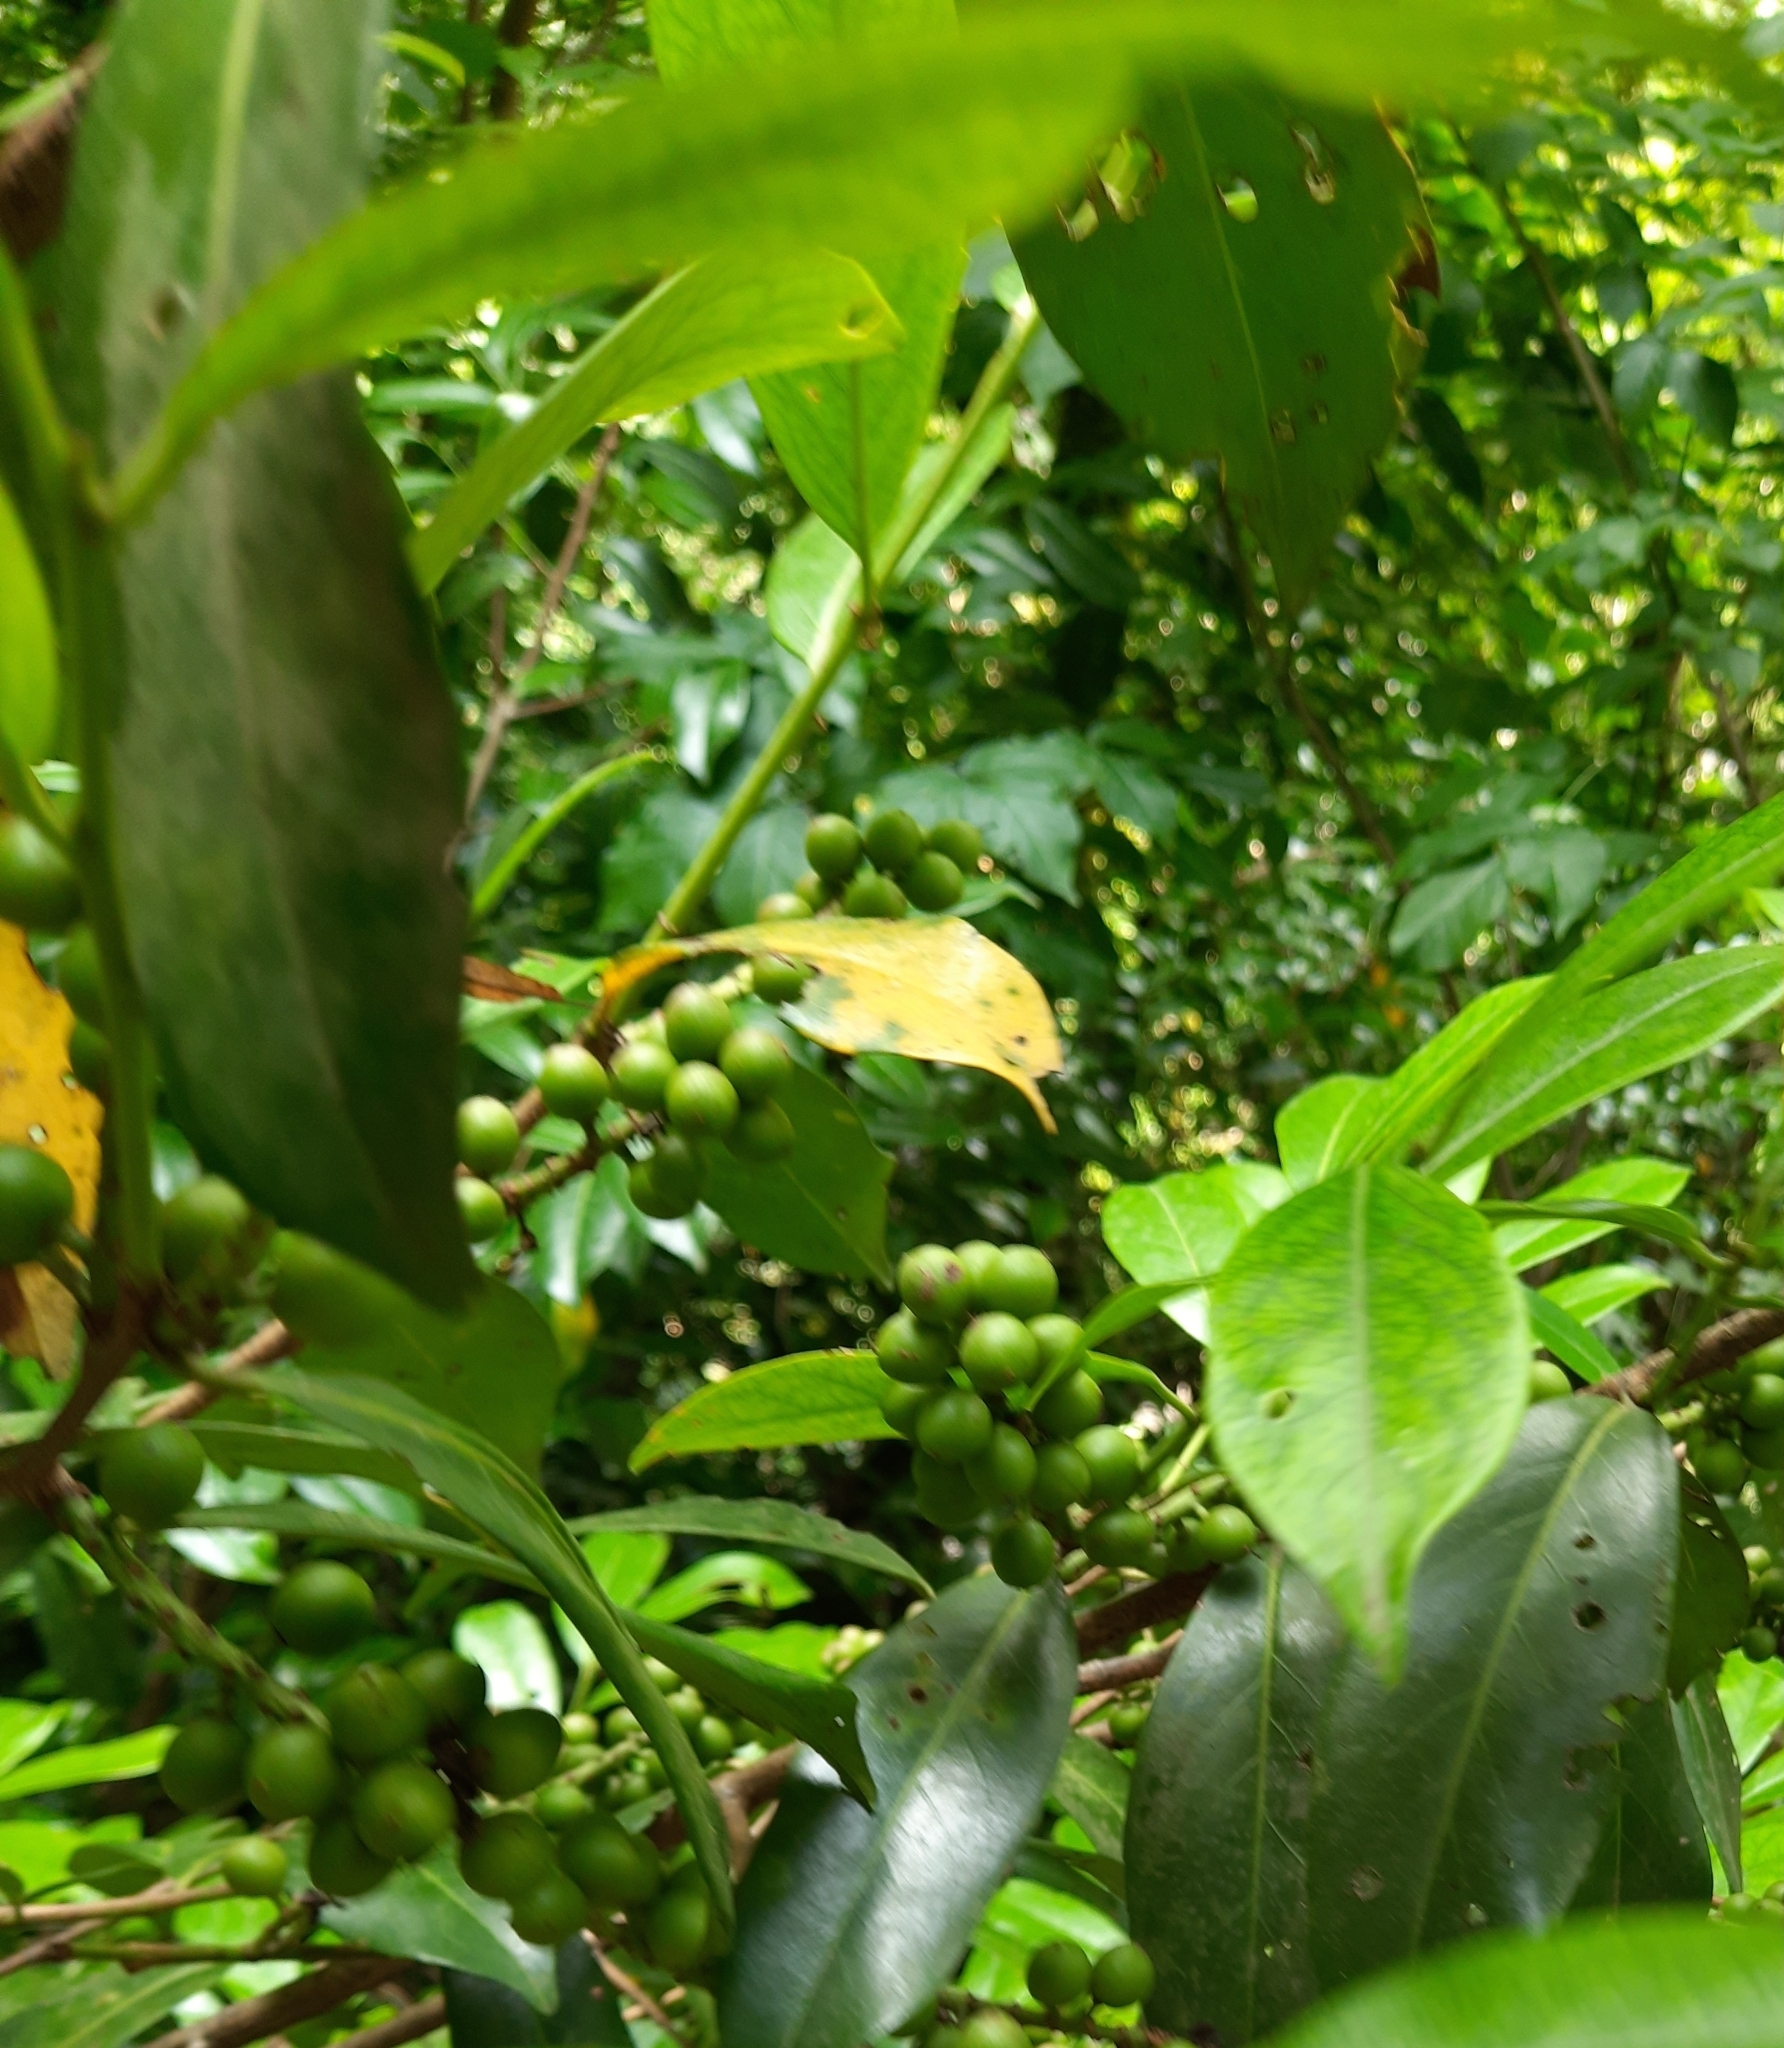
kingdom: Plantae
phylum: Tracheophyta
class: Magnoliopsida
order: Rosales
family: Rosaceae
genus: Prunus
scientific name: Prunus laurocerasus
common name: Cherry laurel
